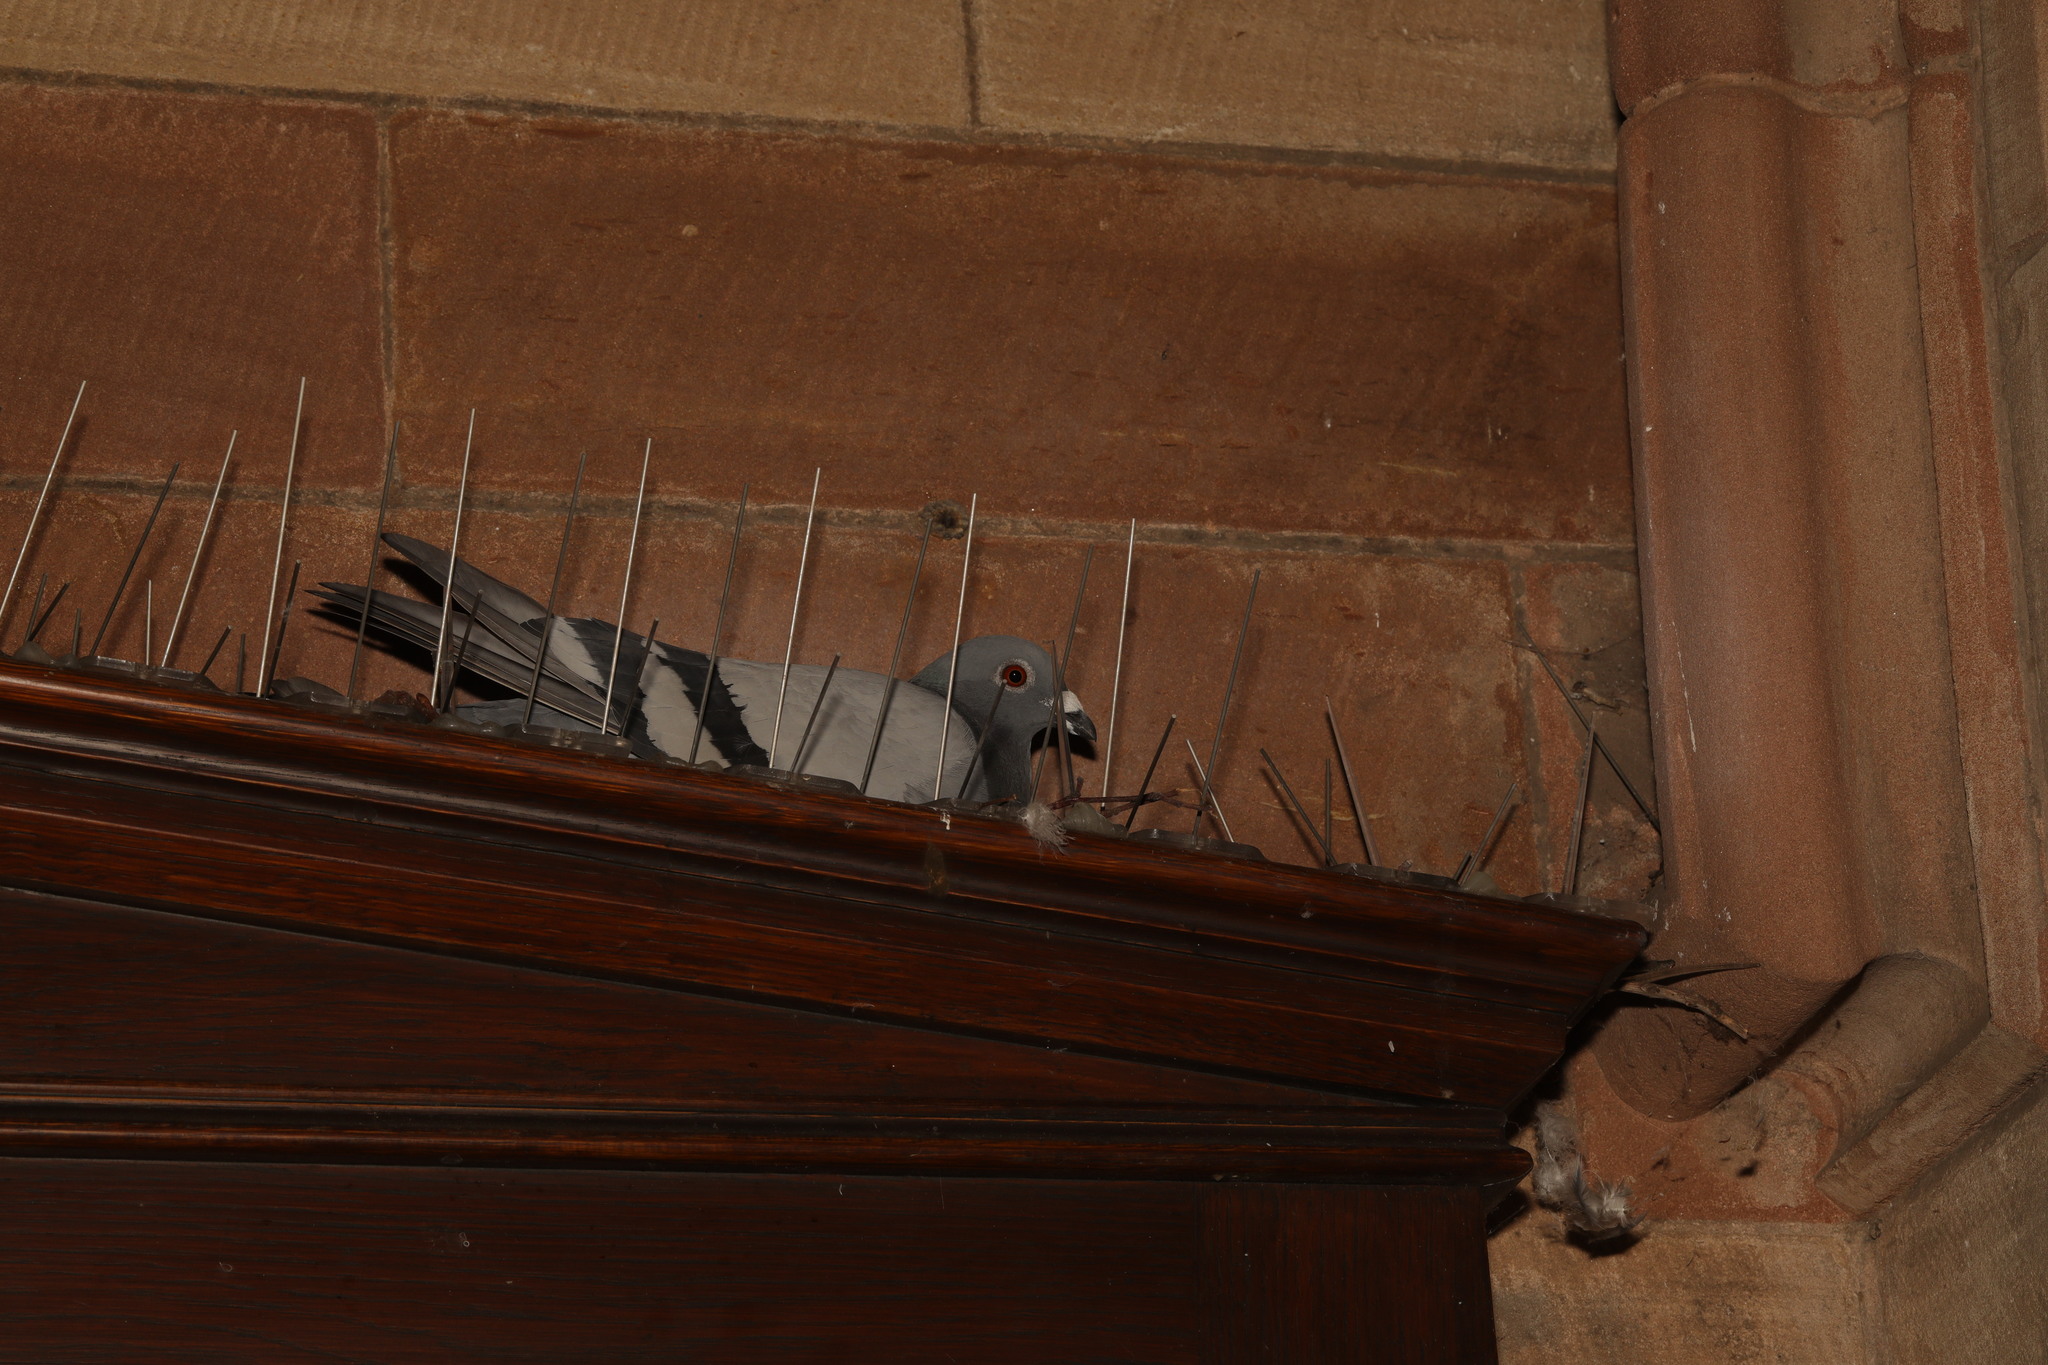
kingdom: Animalia
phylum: Chordata
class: Aves
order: Columbiformes
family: Columbidae
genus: Columba
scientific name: Columba livia
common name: Rock pigeon
